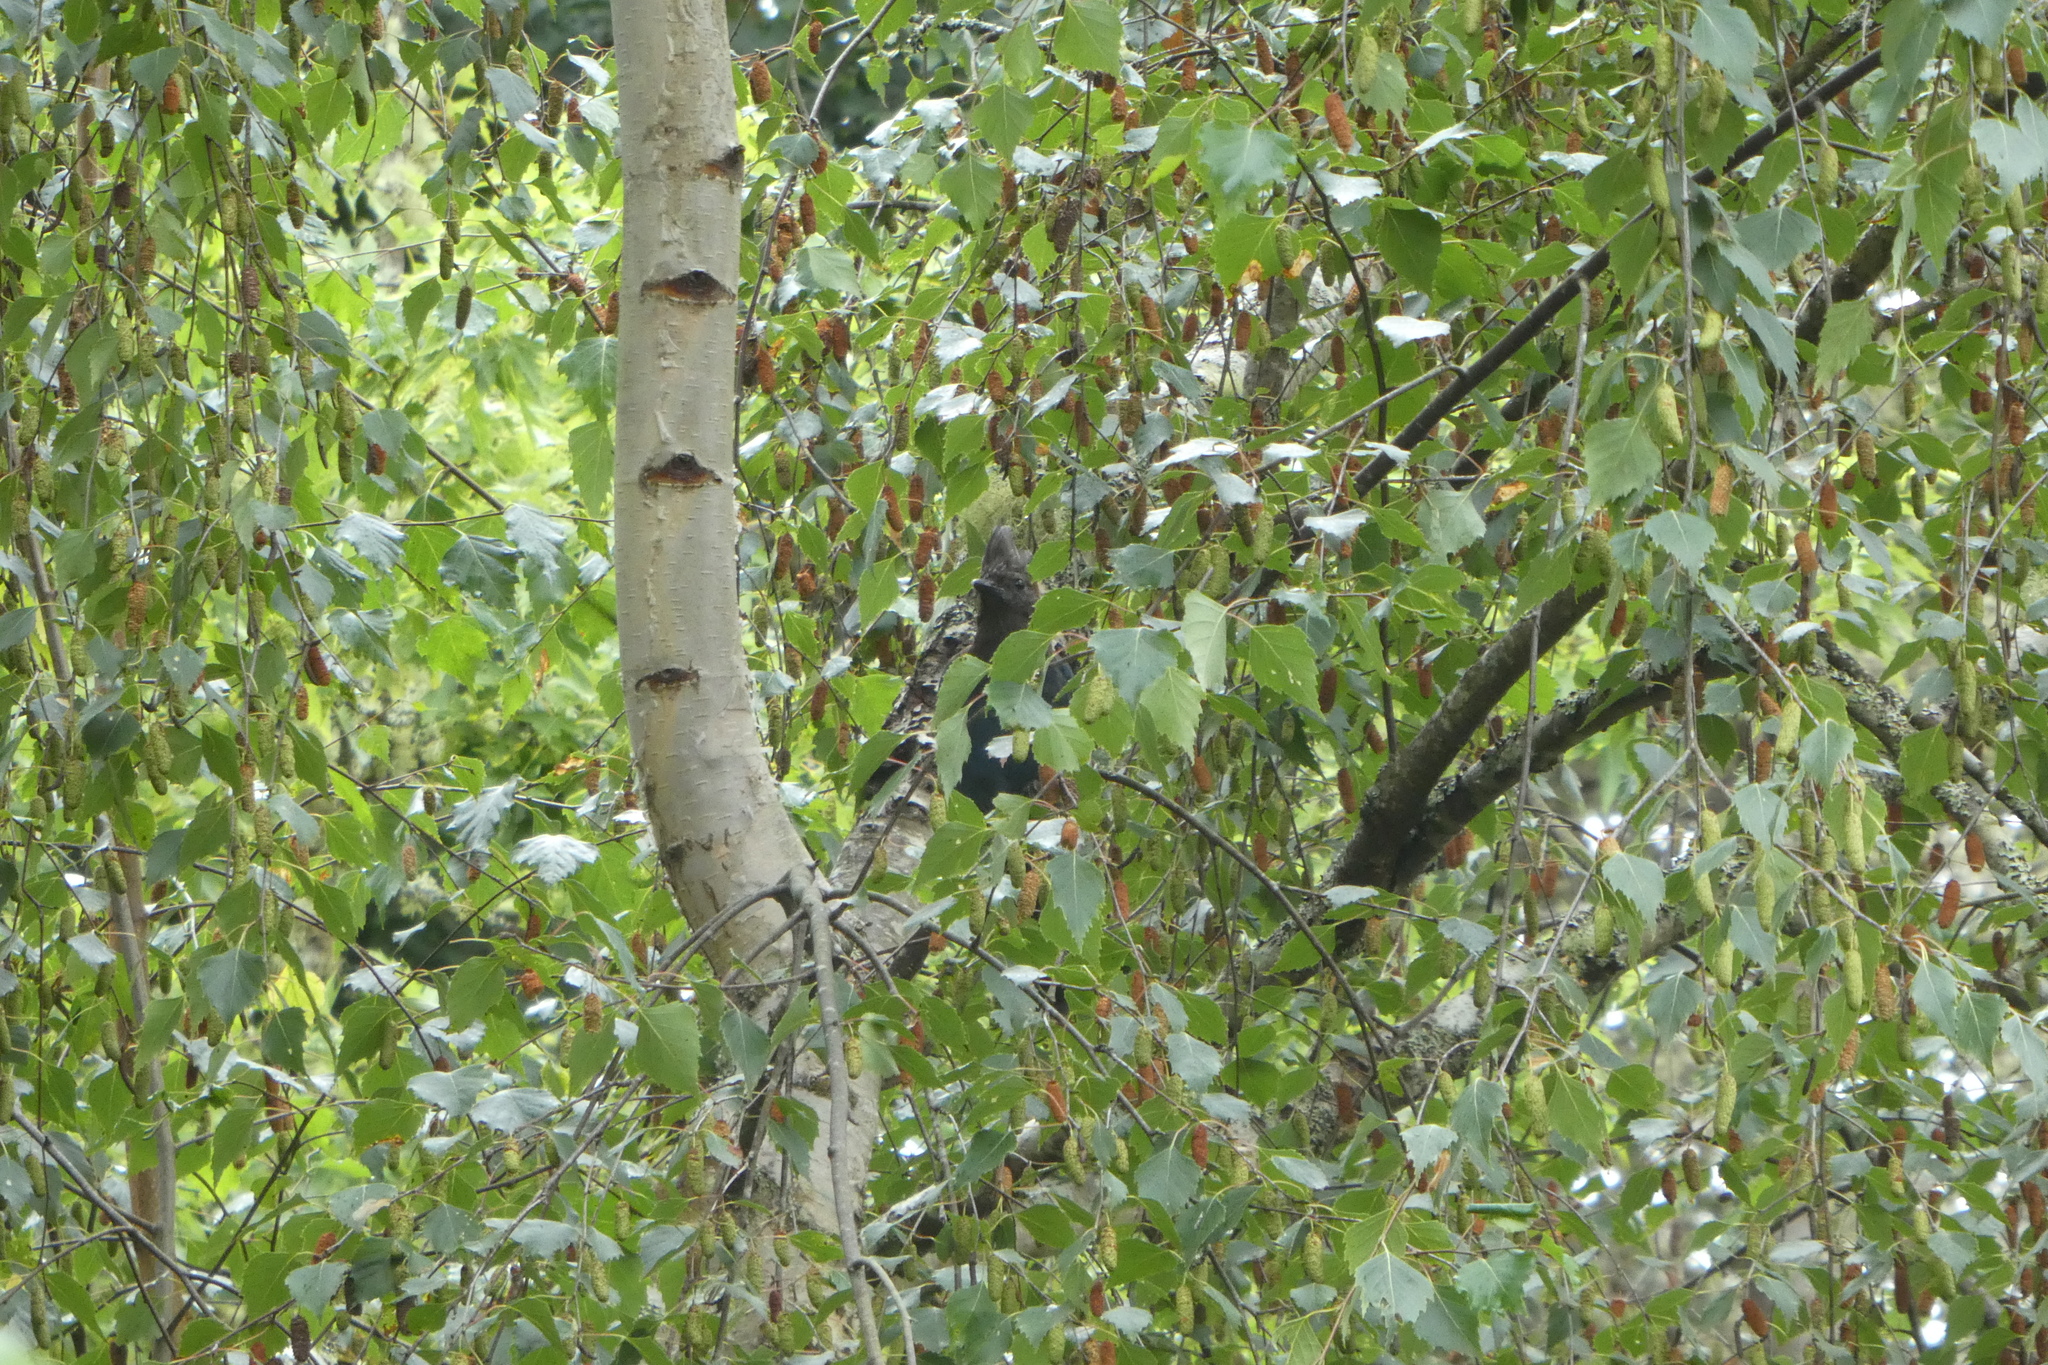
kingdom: Animalia
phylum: Chordata
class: Aves
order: Passeriformes
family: Corvidae
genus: Cyanocitta
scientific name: Cyanocitta stelleri
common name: Steller's jay
